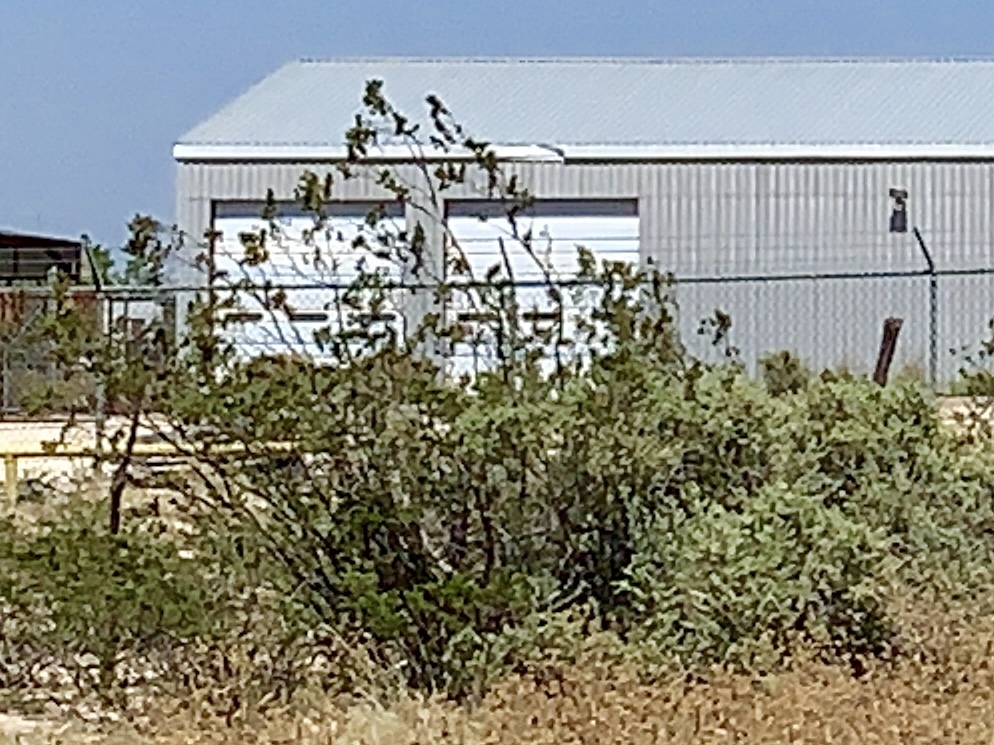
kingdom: Plantae
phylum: Tracheophyta
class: Magnoliopsida
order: Zygophyllales
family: Zygophyllaceae
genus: Larrea
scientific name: Larrea tridentata
